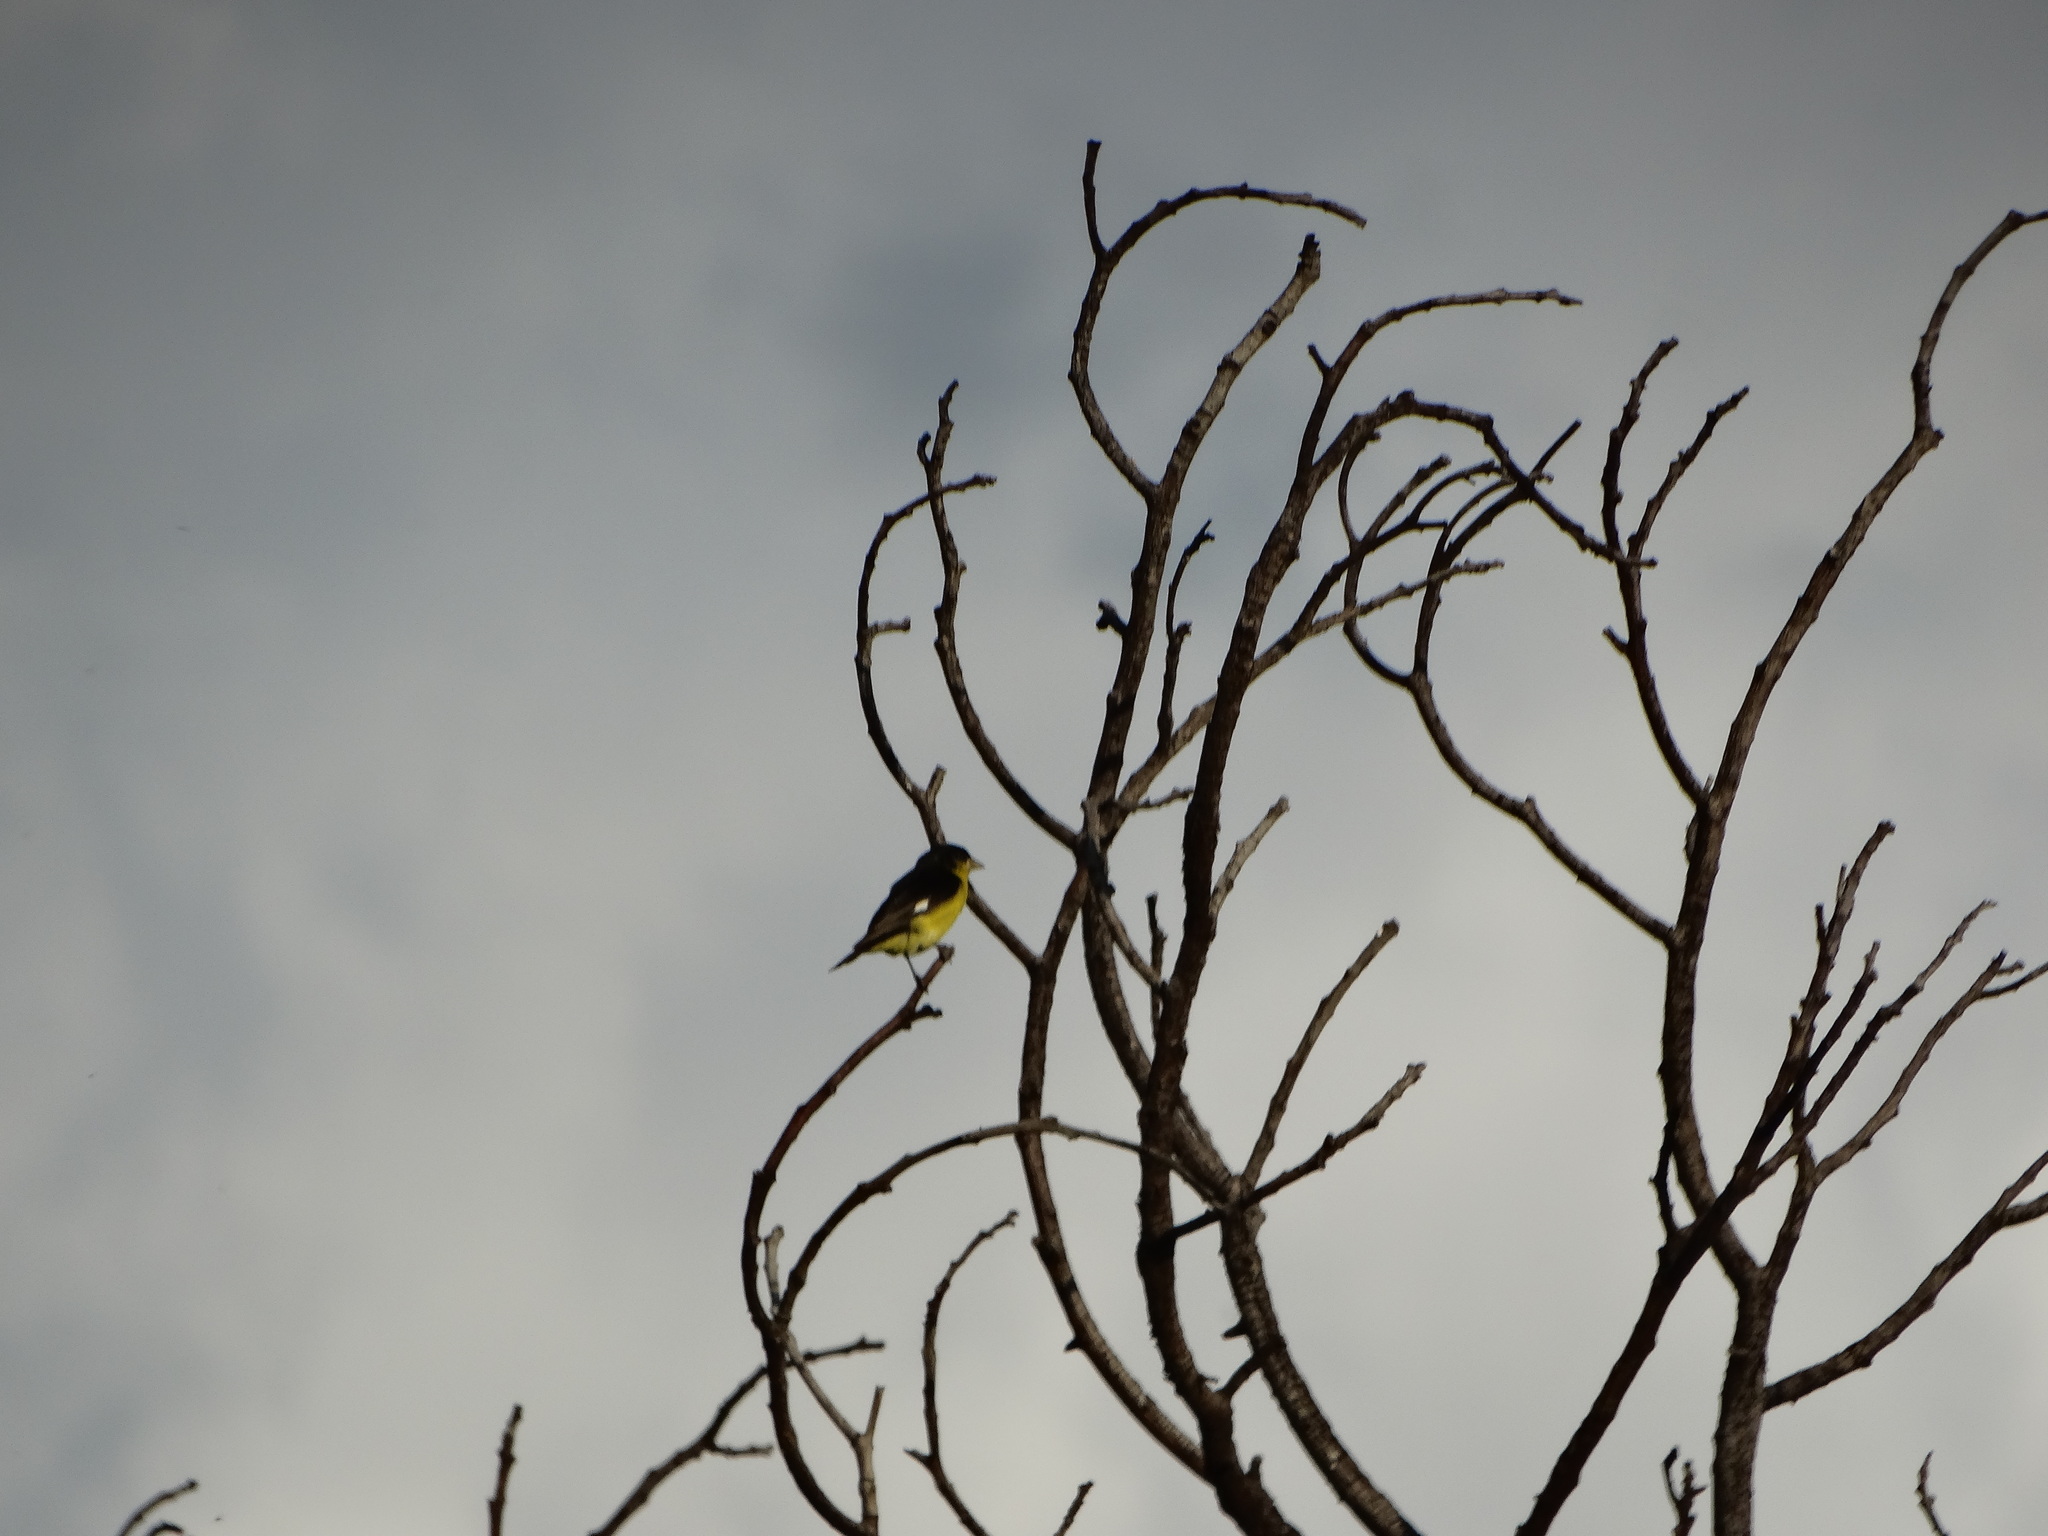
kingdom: Animalia
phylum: Chordata
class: Aves
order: Passeriformes
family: Fringillidae
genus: Spinus
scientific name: Spinus psaltria
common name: Lesser goldfinch
